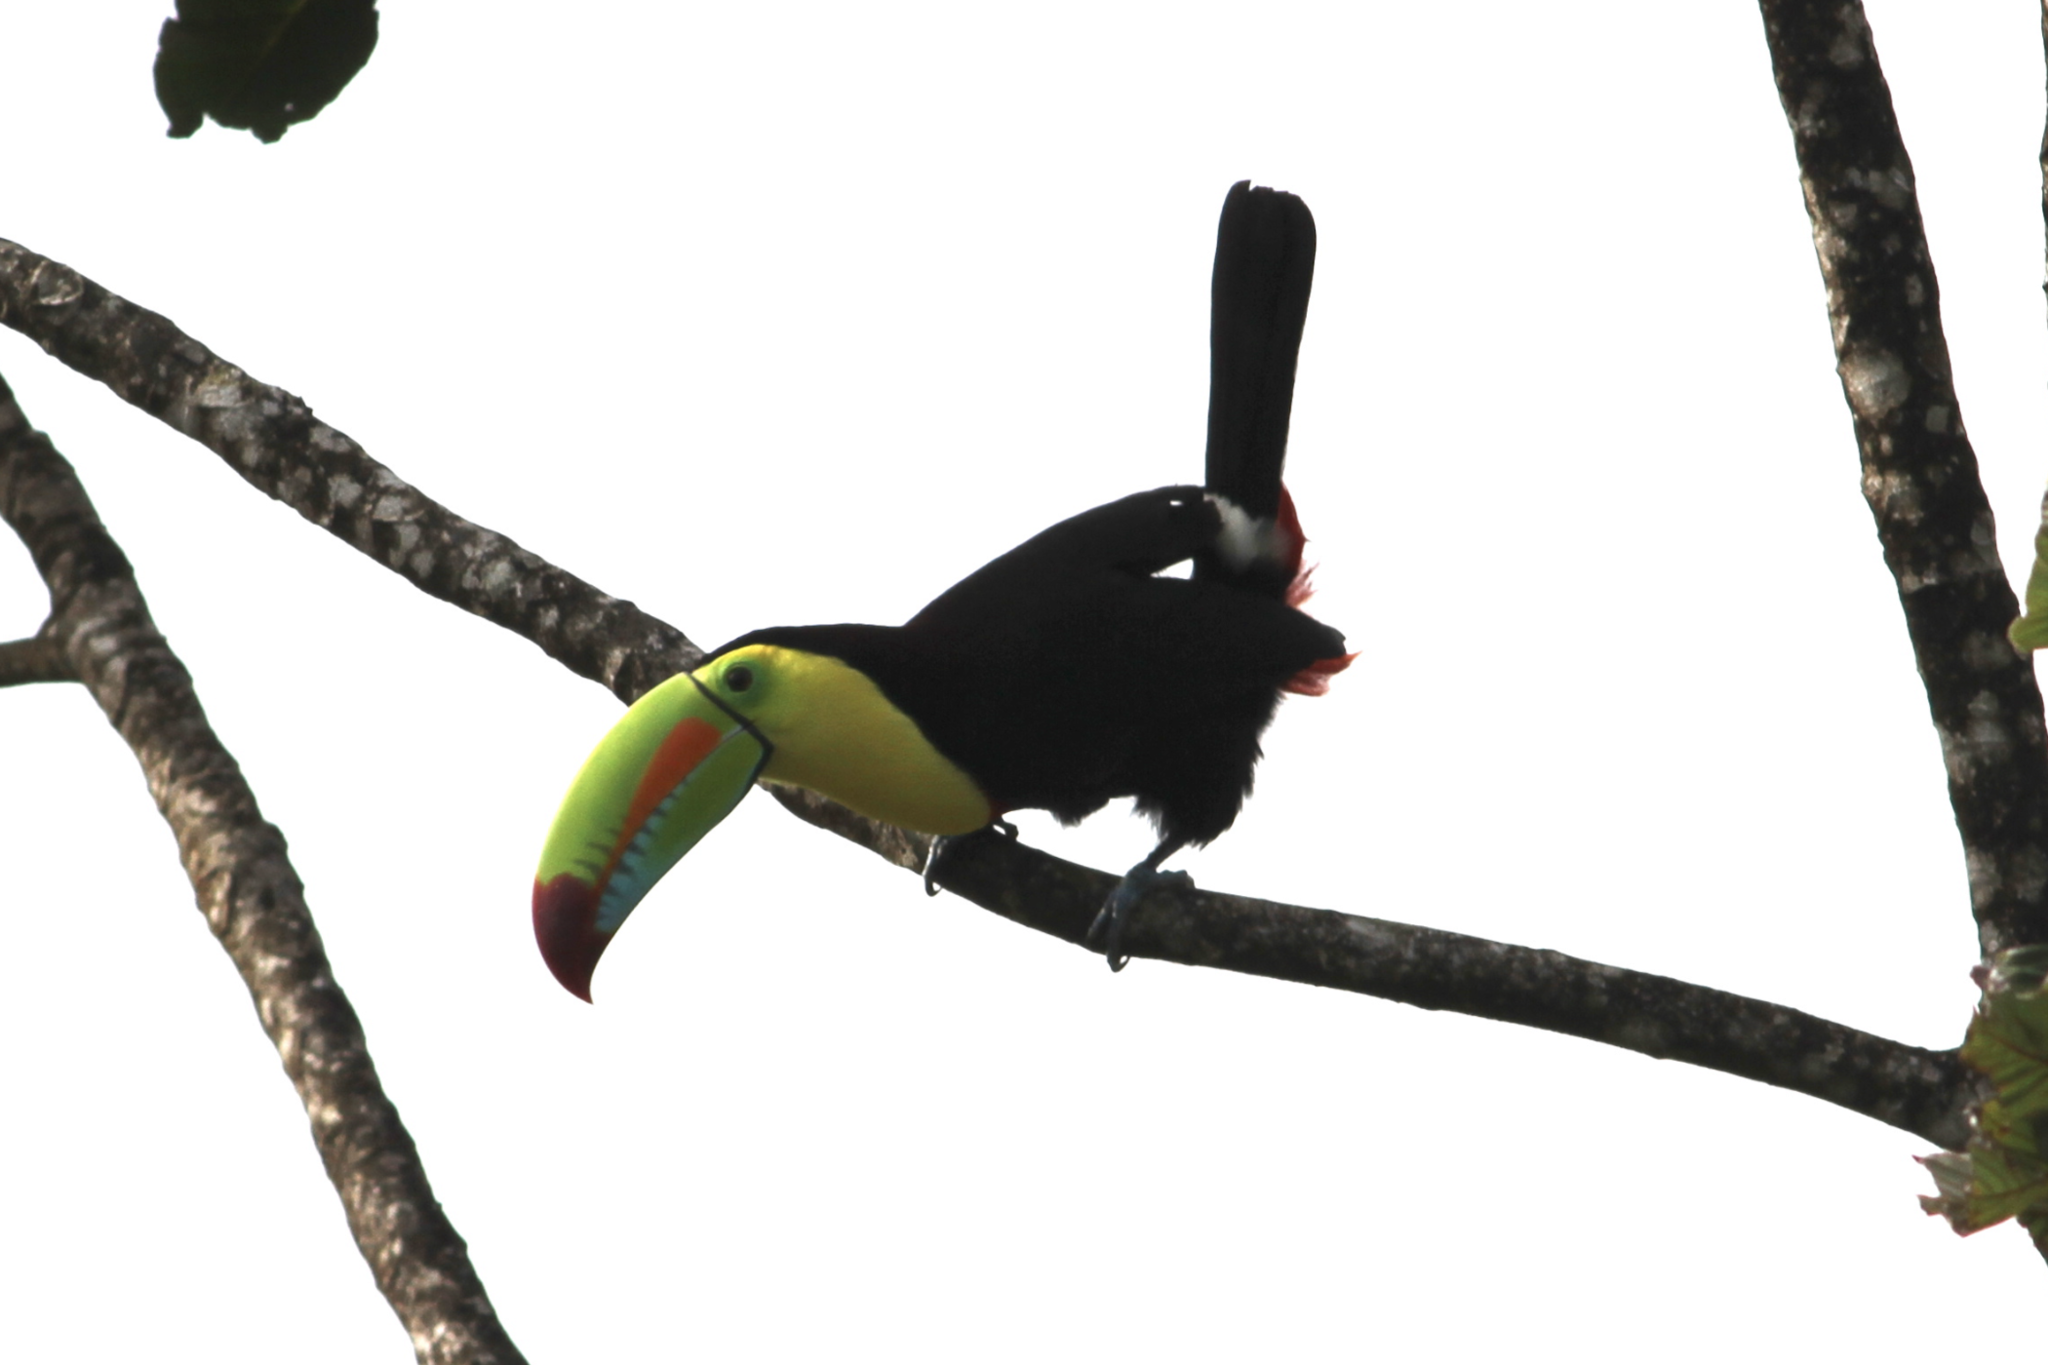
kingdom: Animalia
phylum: Chordata
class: Aves
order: Piciformes
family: Ramphastidae
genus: Ramphastos
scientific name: Ramphastos sulfuratus
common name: Keel-billed toucan
